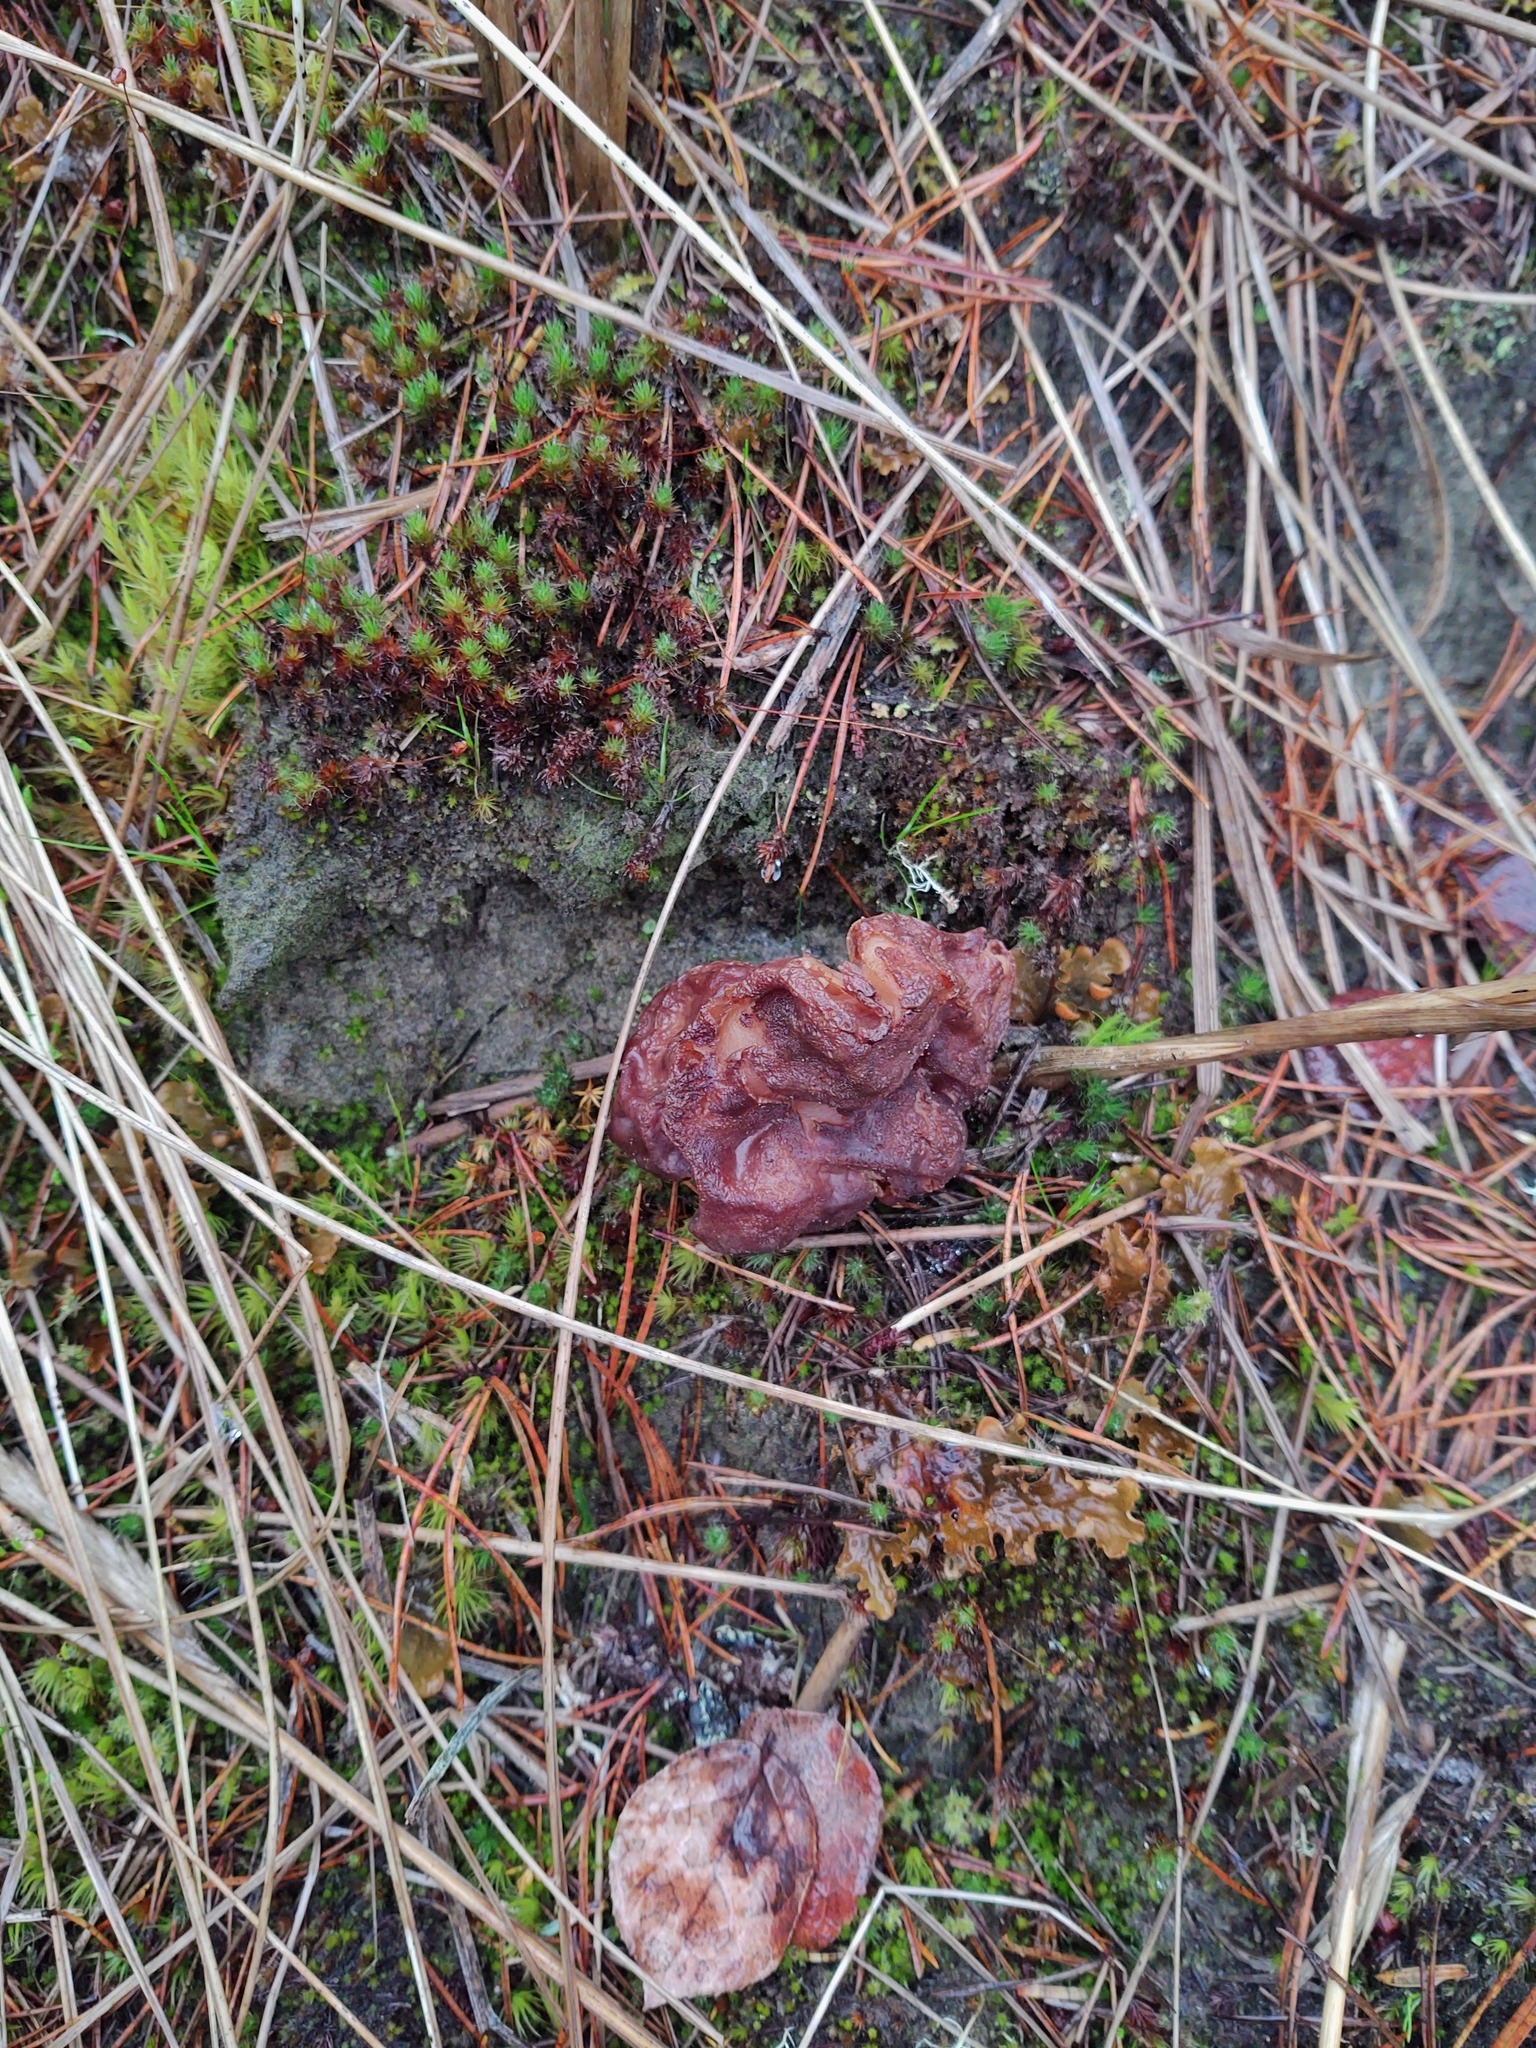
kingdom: Fungi
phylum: Ascomycota
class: Pezizomycetes
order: Pezizales
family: Discinaceae
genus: Gyromitra
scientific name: Gyromitra esculenta
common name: False morel
